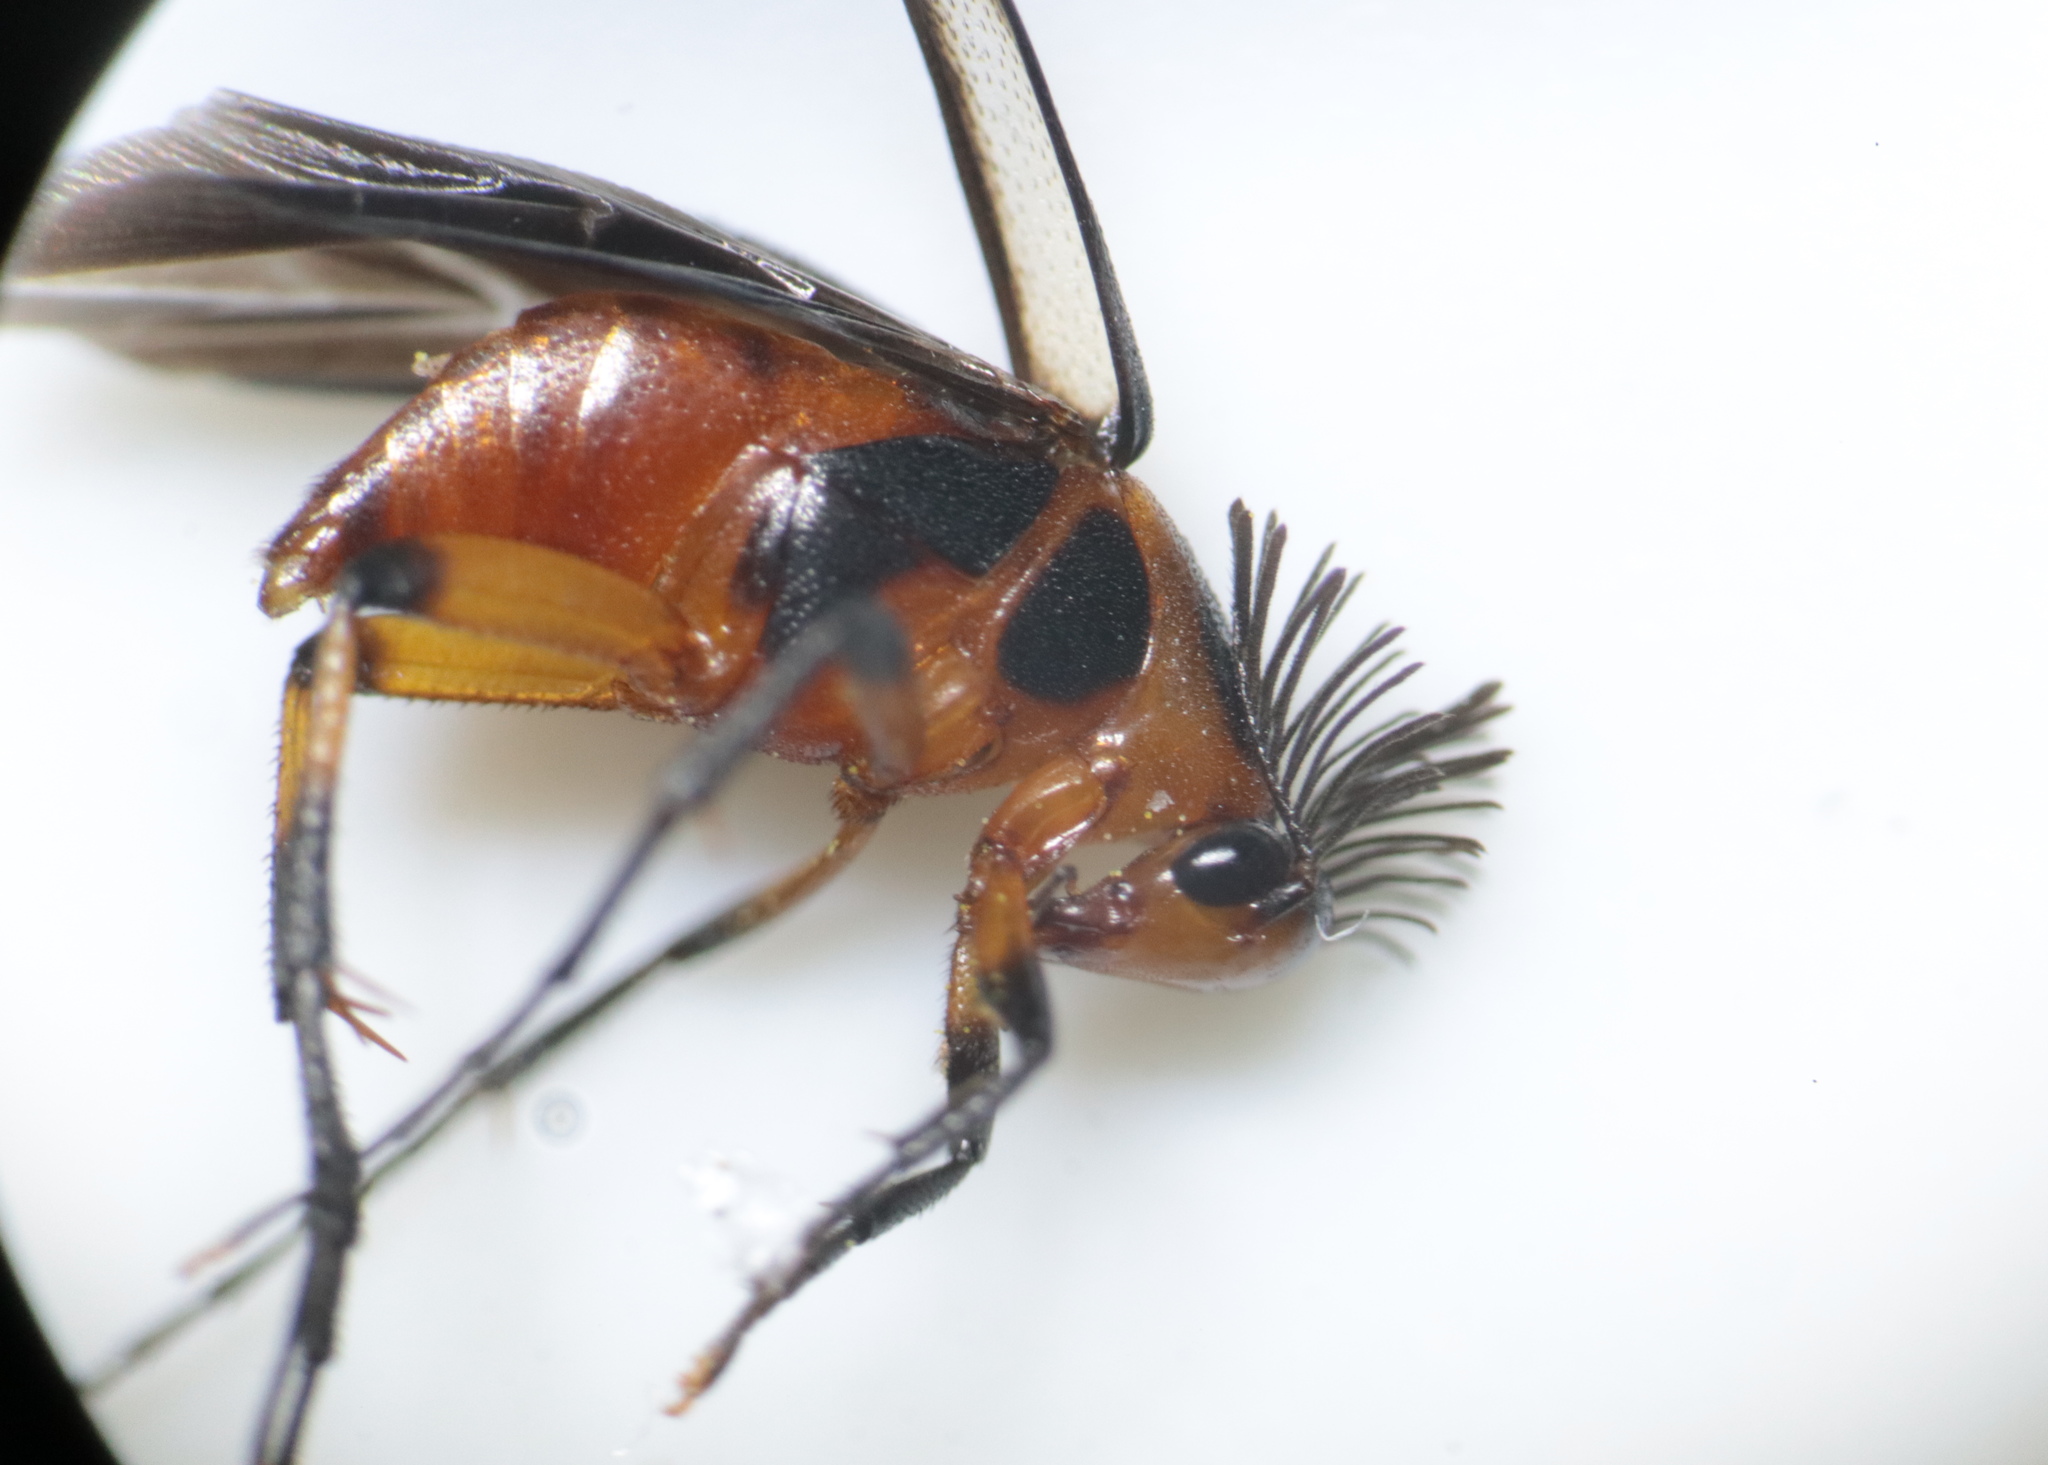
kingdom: Animalia
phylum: Arthropoda
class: Insecta
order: Coleoptera
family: Ripiphoridae
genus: Macrosiagon
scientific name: Macrosiagon limbatum
